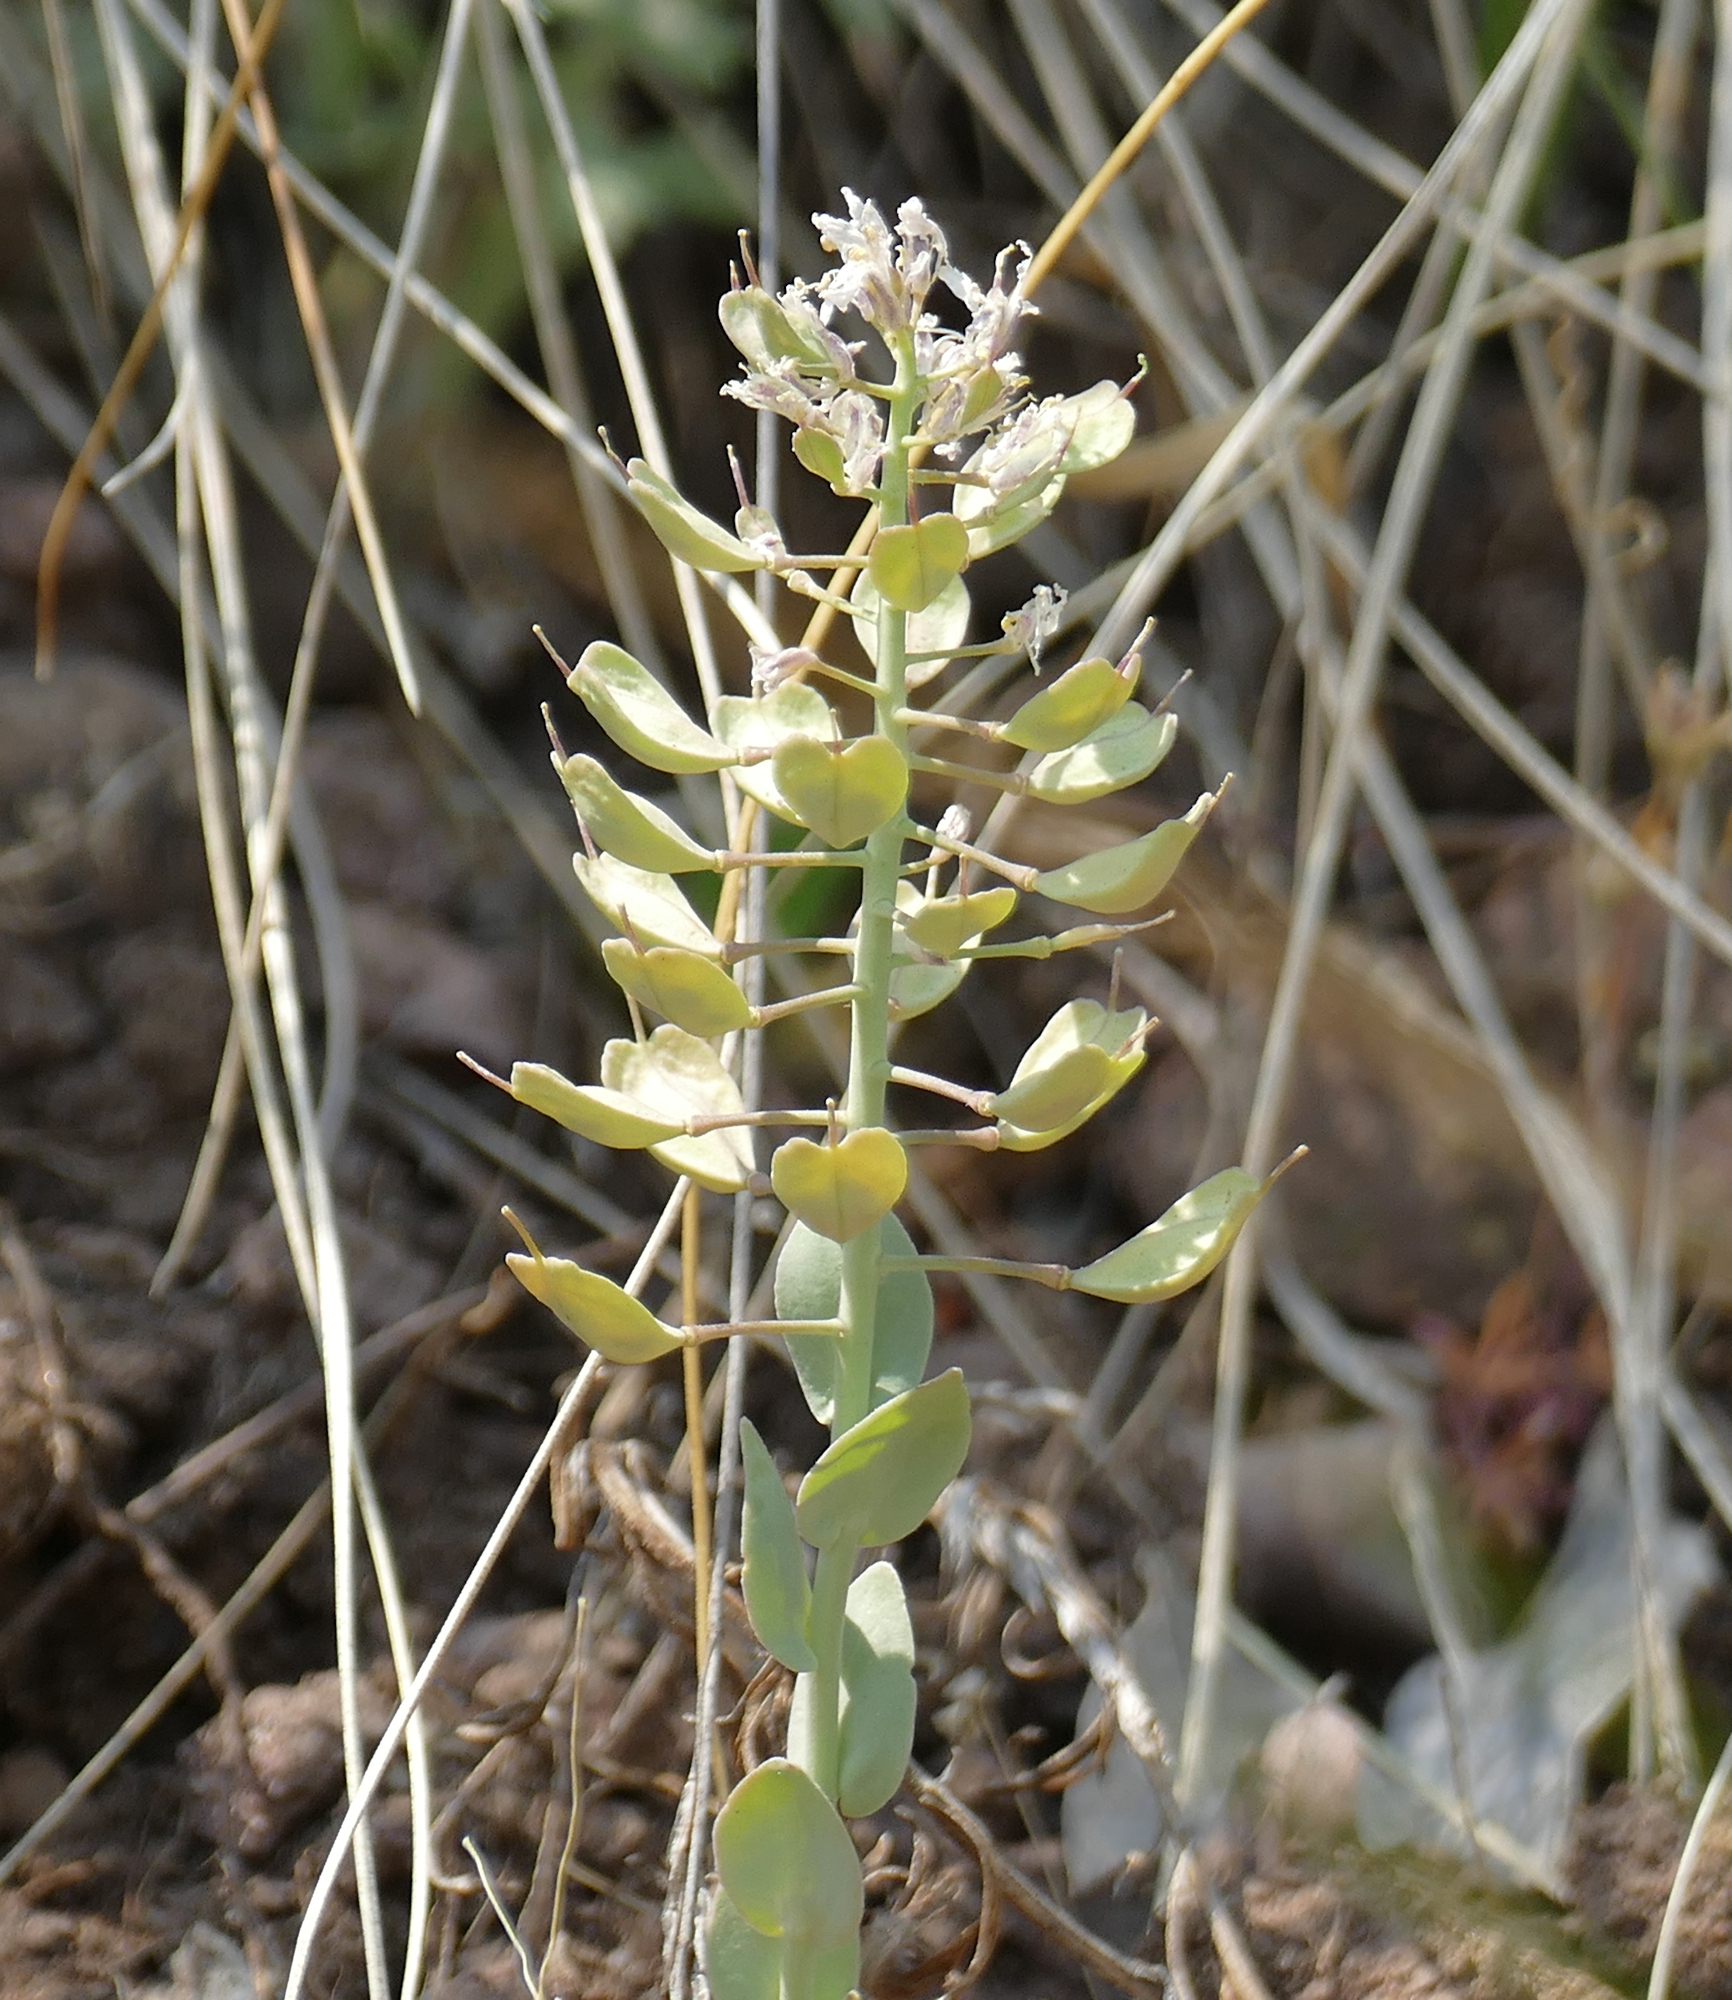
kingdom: Plantae
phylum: Tracheophyta
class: Magnoliopsida
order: Brassicales
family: Brassicaceae
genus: Noccaea
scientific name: Noccaea fendleri
